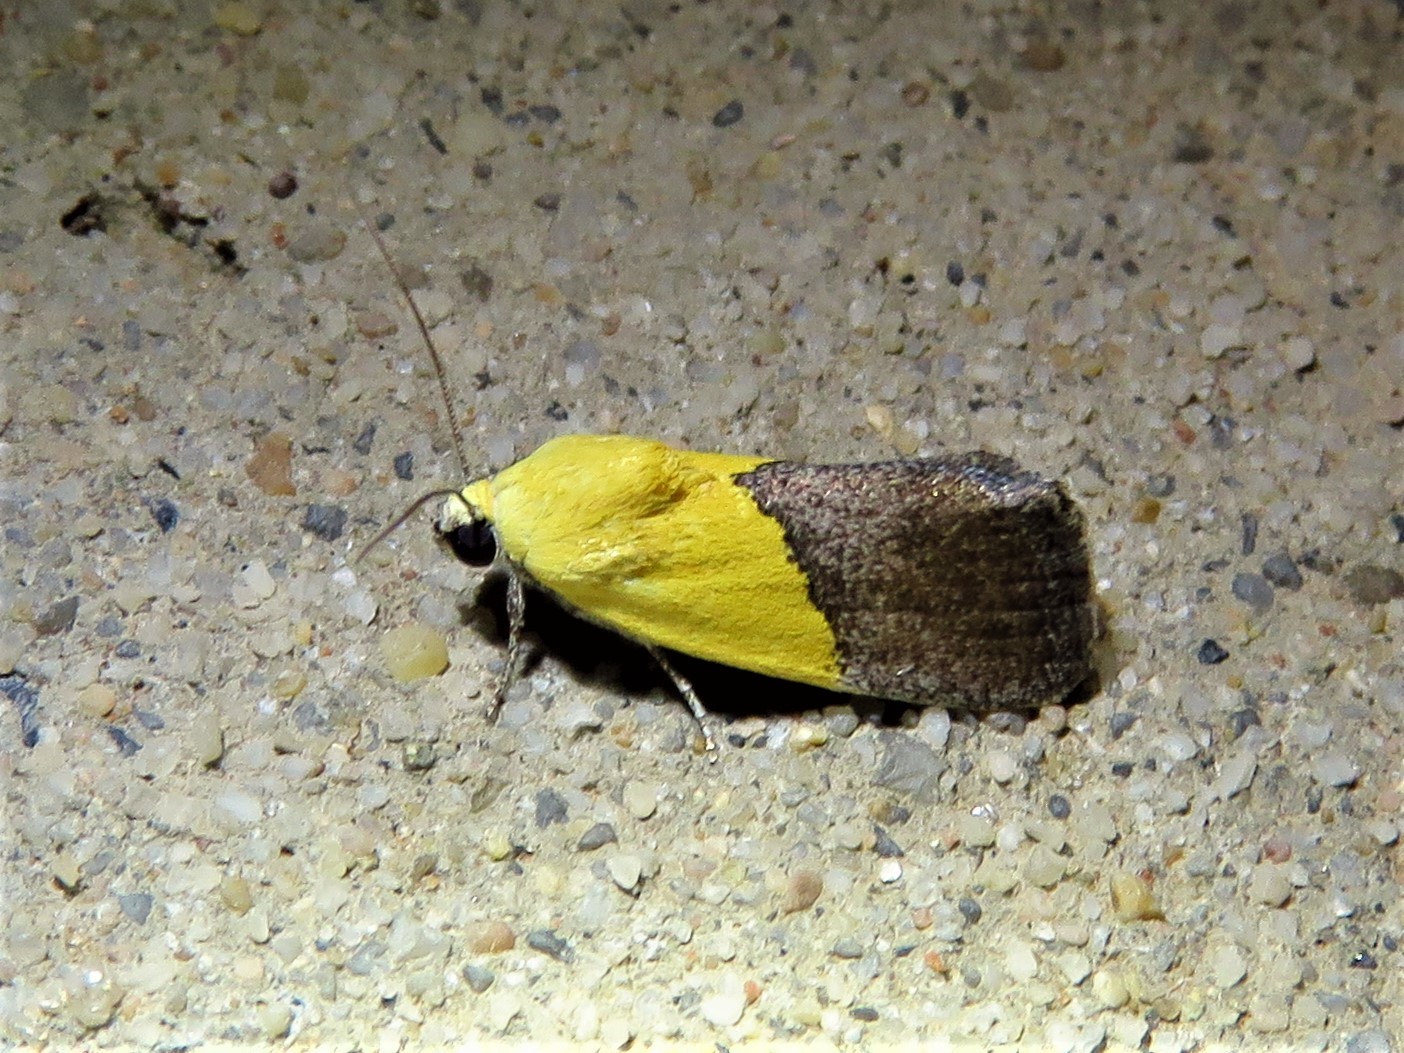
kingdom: Animalia
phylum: Arthropoda
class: Insecta
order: Lepidoptera
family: Noctuidae
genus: Acontia
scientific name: Acontia semiflava
